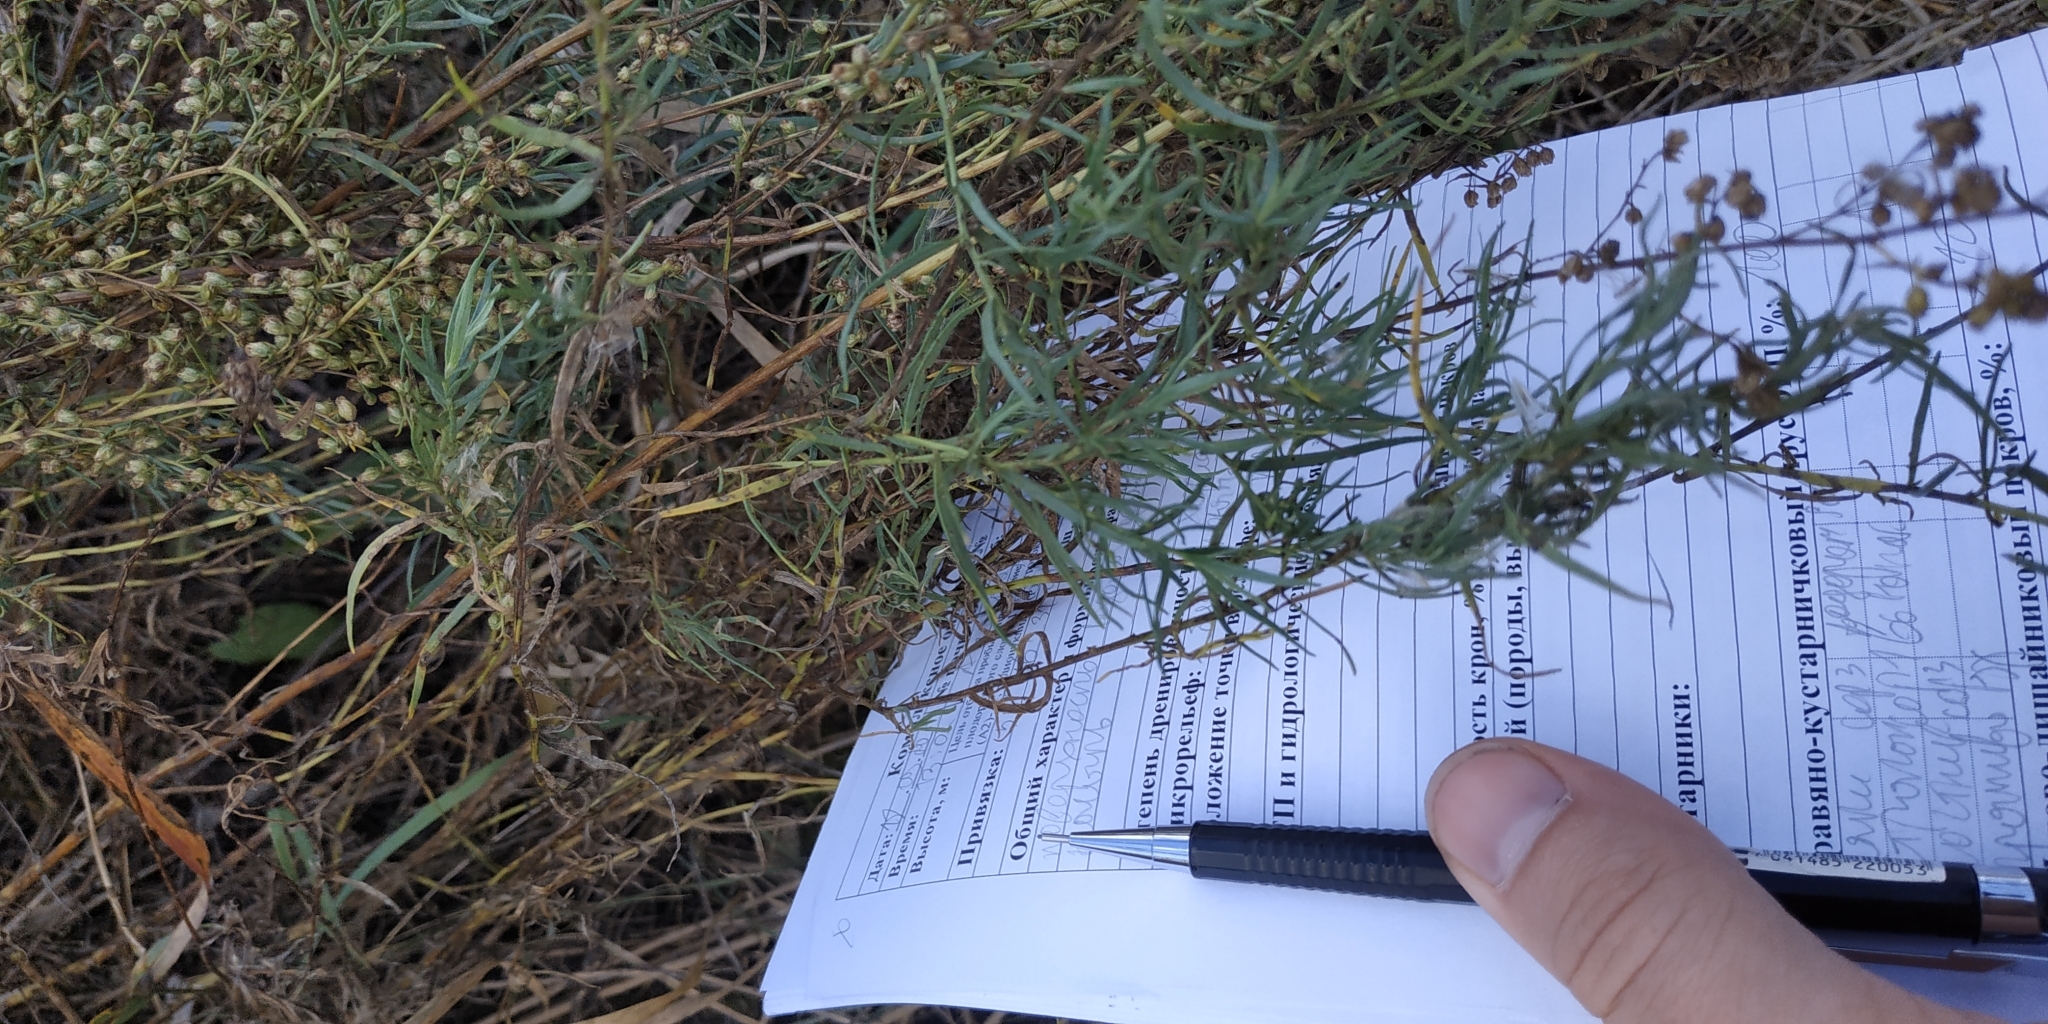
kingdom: Plantae
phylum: Tracheophyta
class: Magnoliopsida
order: Asterales
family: Asteraceae
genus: Artemisia
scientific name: Artemisia dracunculus
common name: Tarragon
